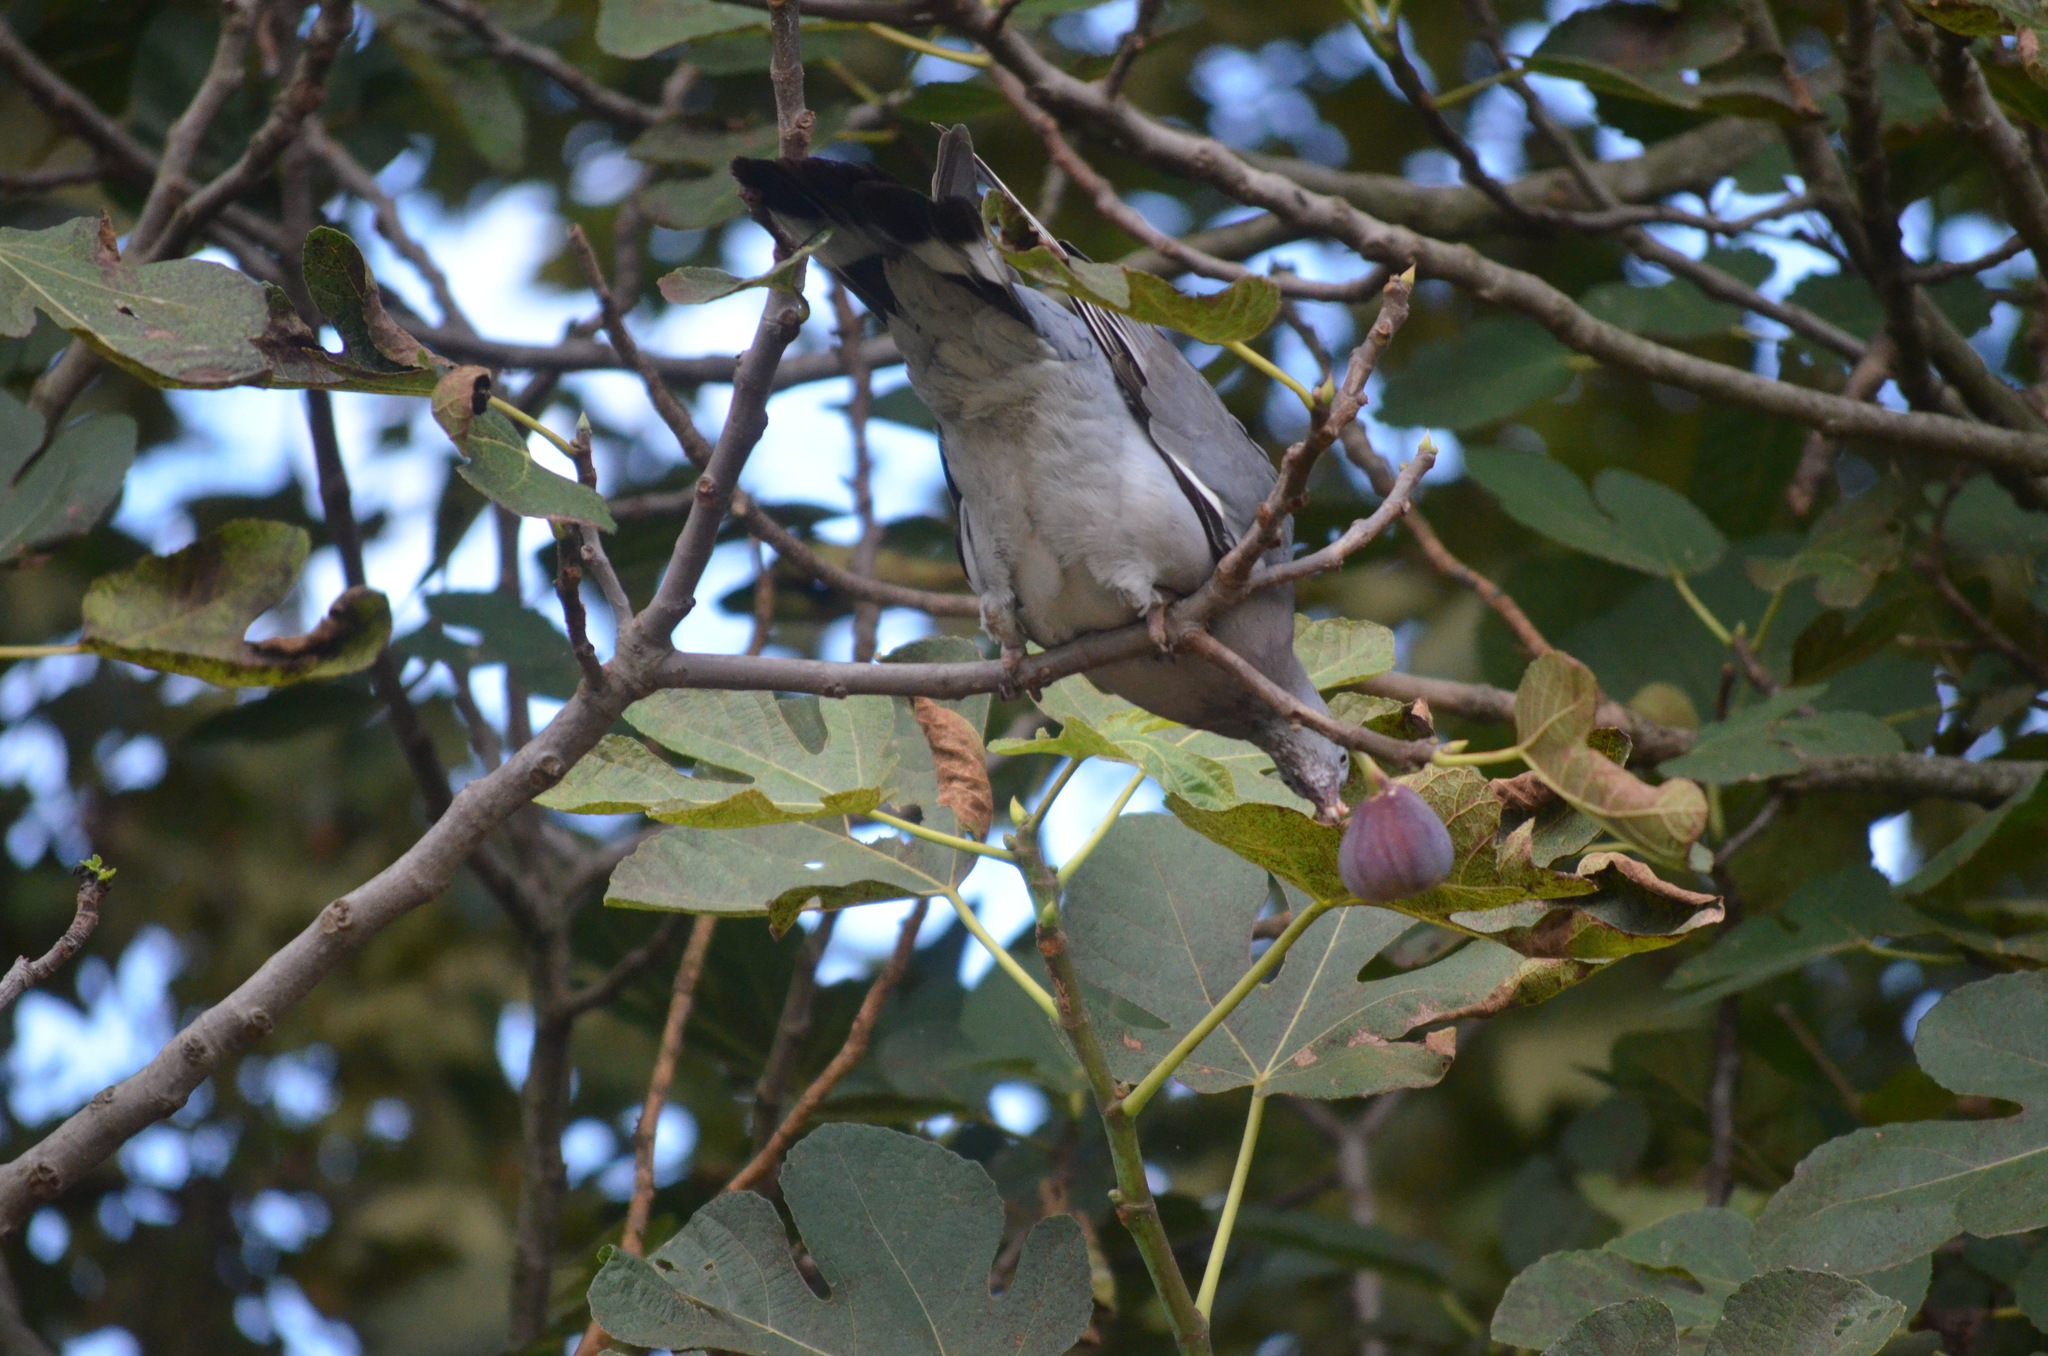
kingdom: Animalia
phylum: Chordata
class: Aves
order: Columbiformes
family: Columbidae
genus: Columba
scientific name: Columba palumbus
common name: Common wood pigeon
